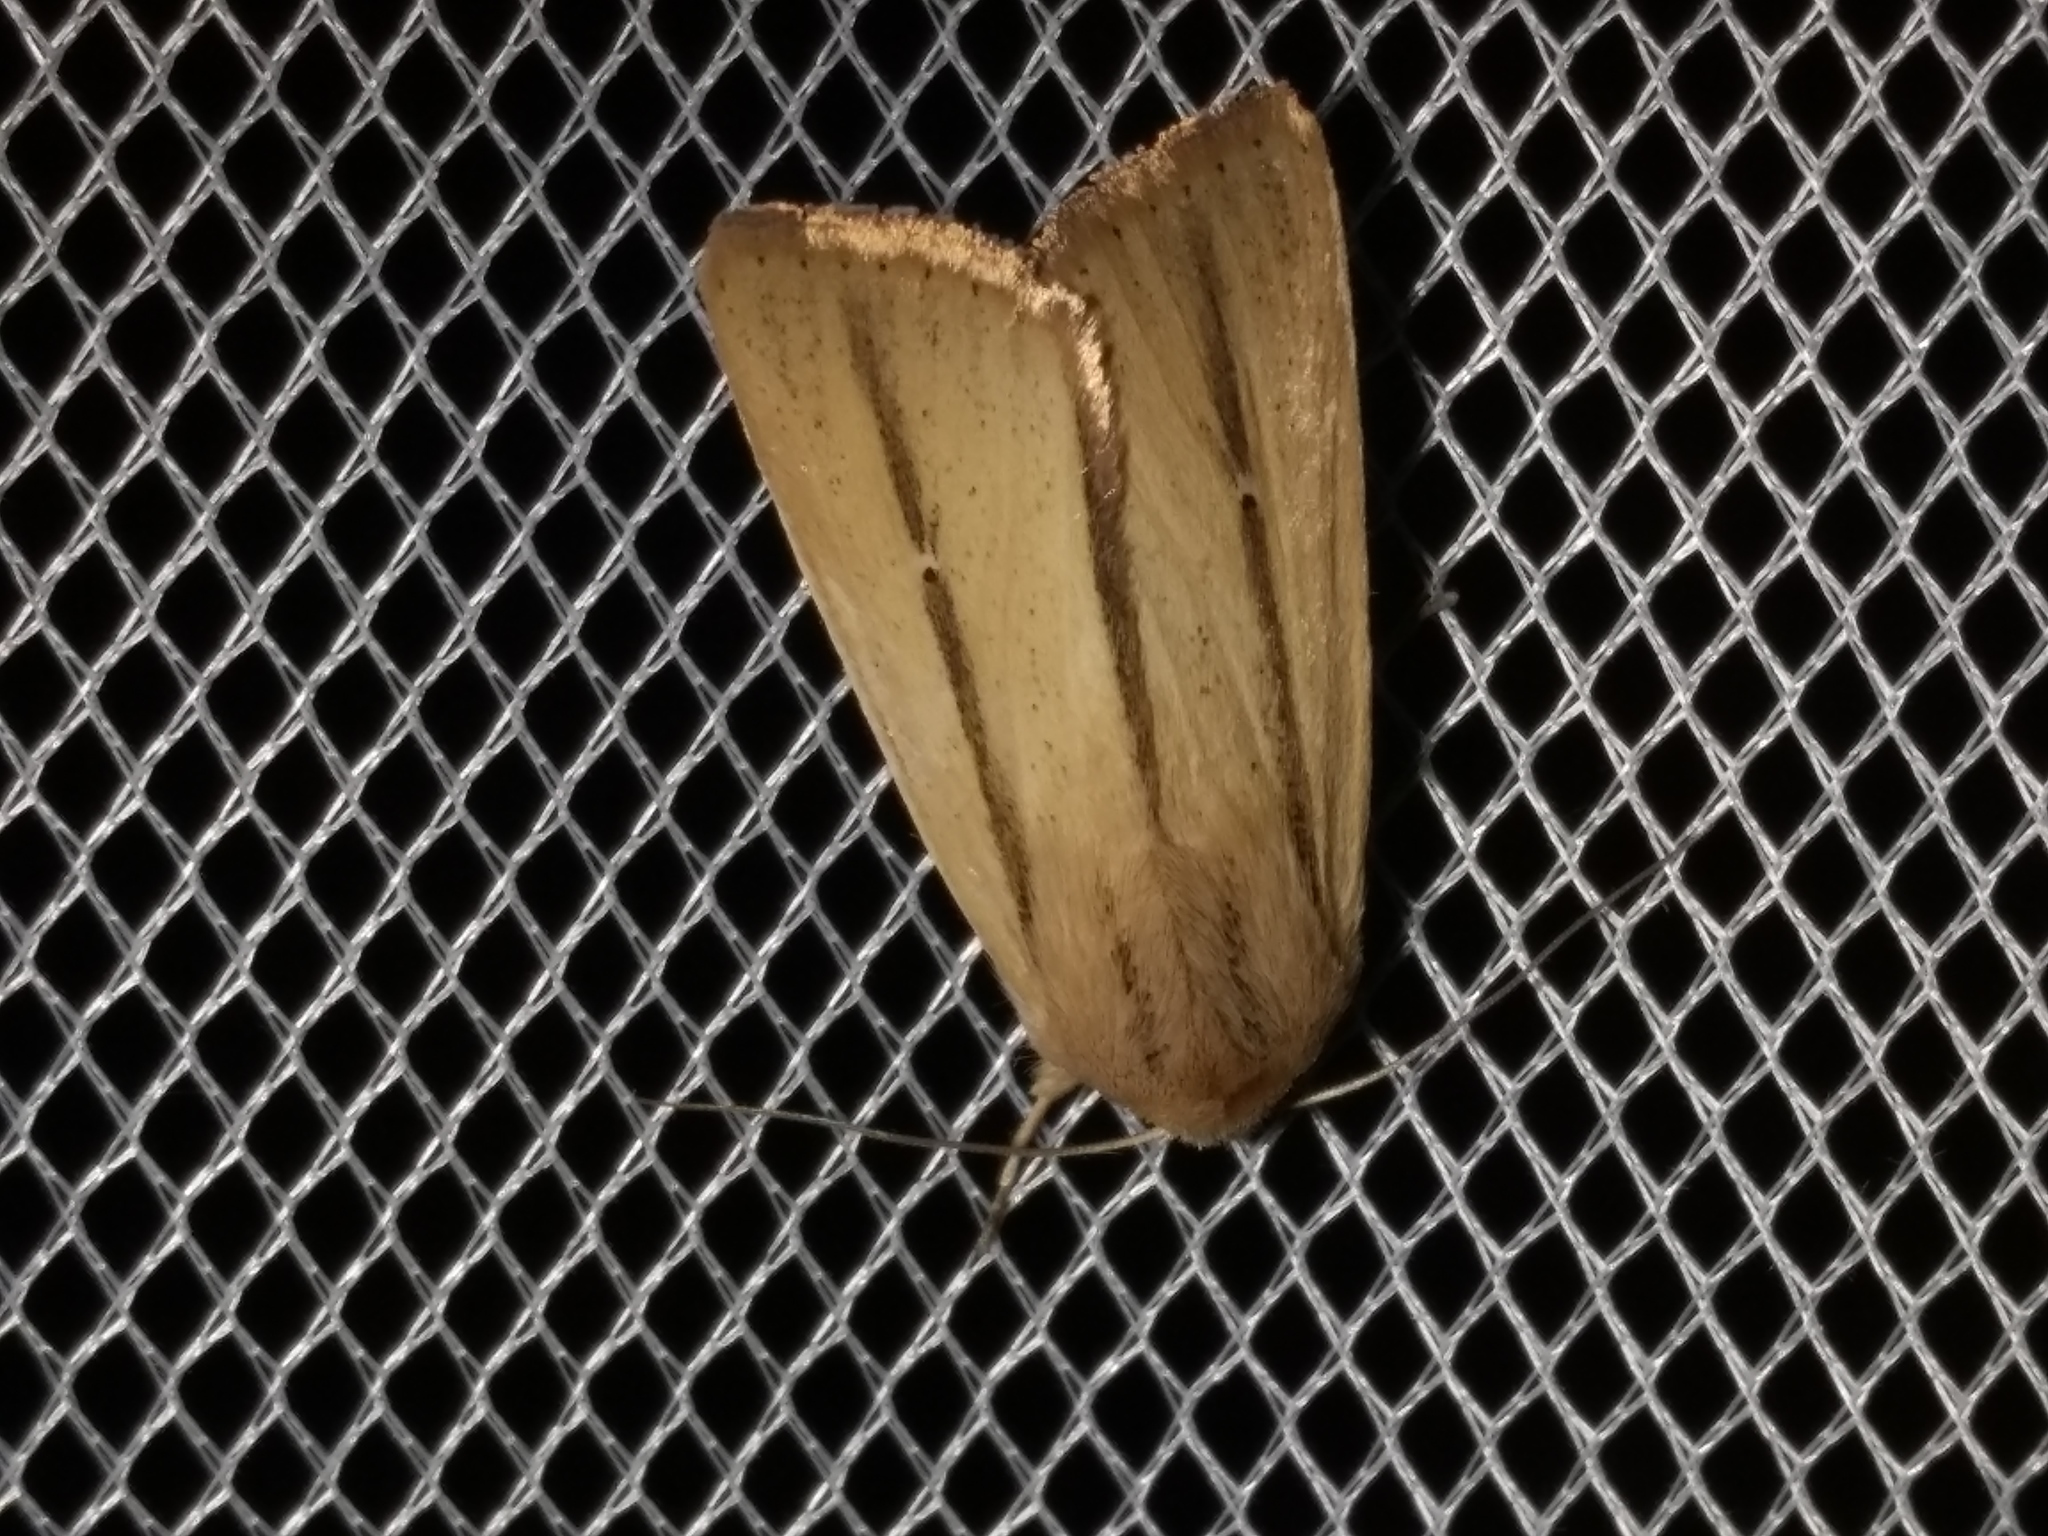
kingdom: Animalia
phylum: Arthropoda
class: Insecta
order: Lepidoptera
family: Noctuidae
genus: Leucania
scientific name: Leucania diatrecta
